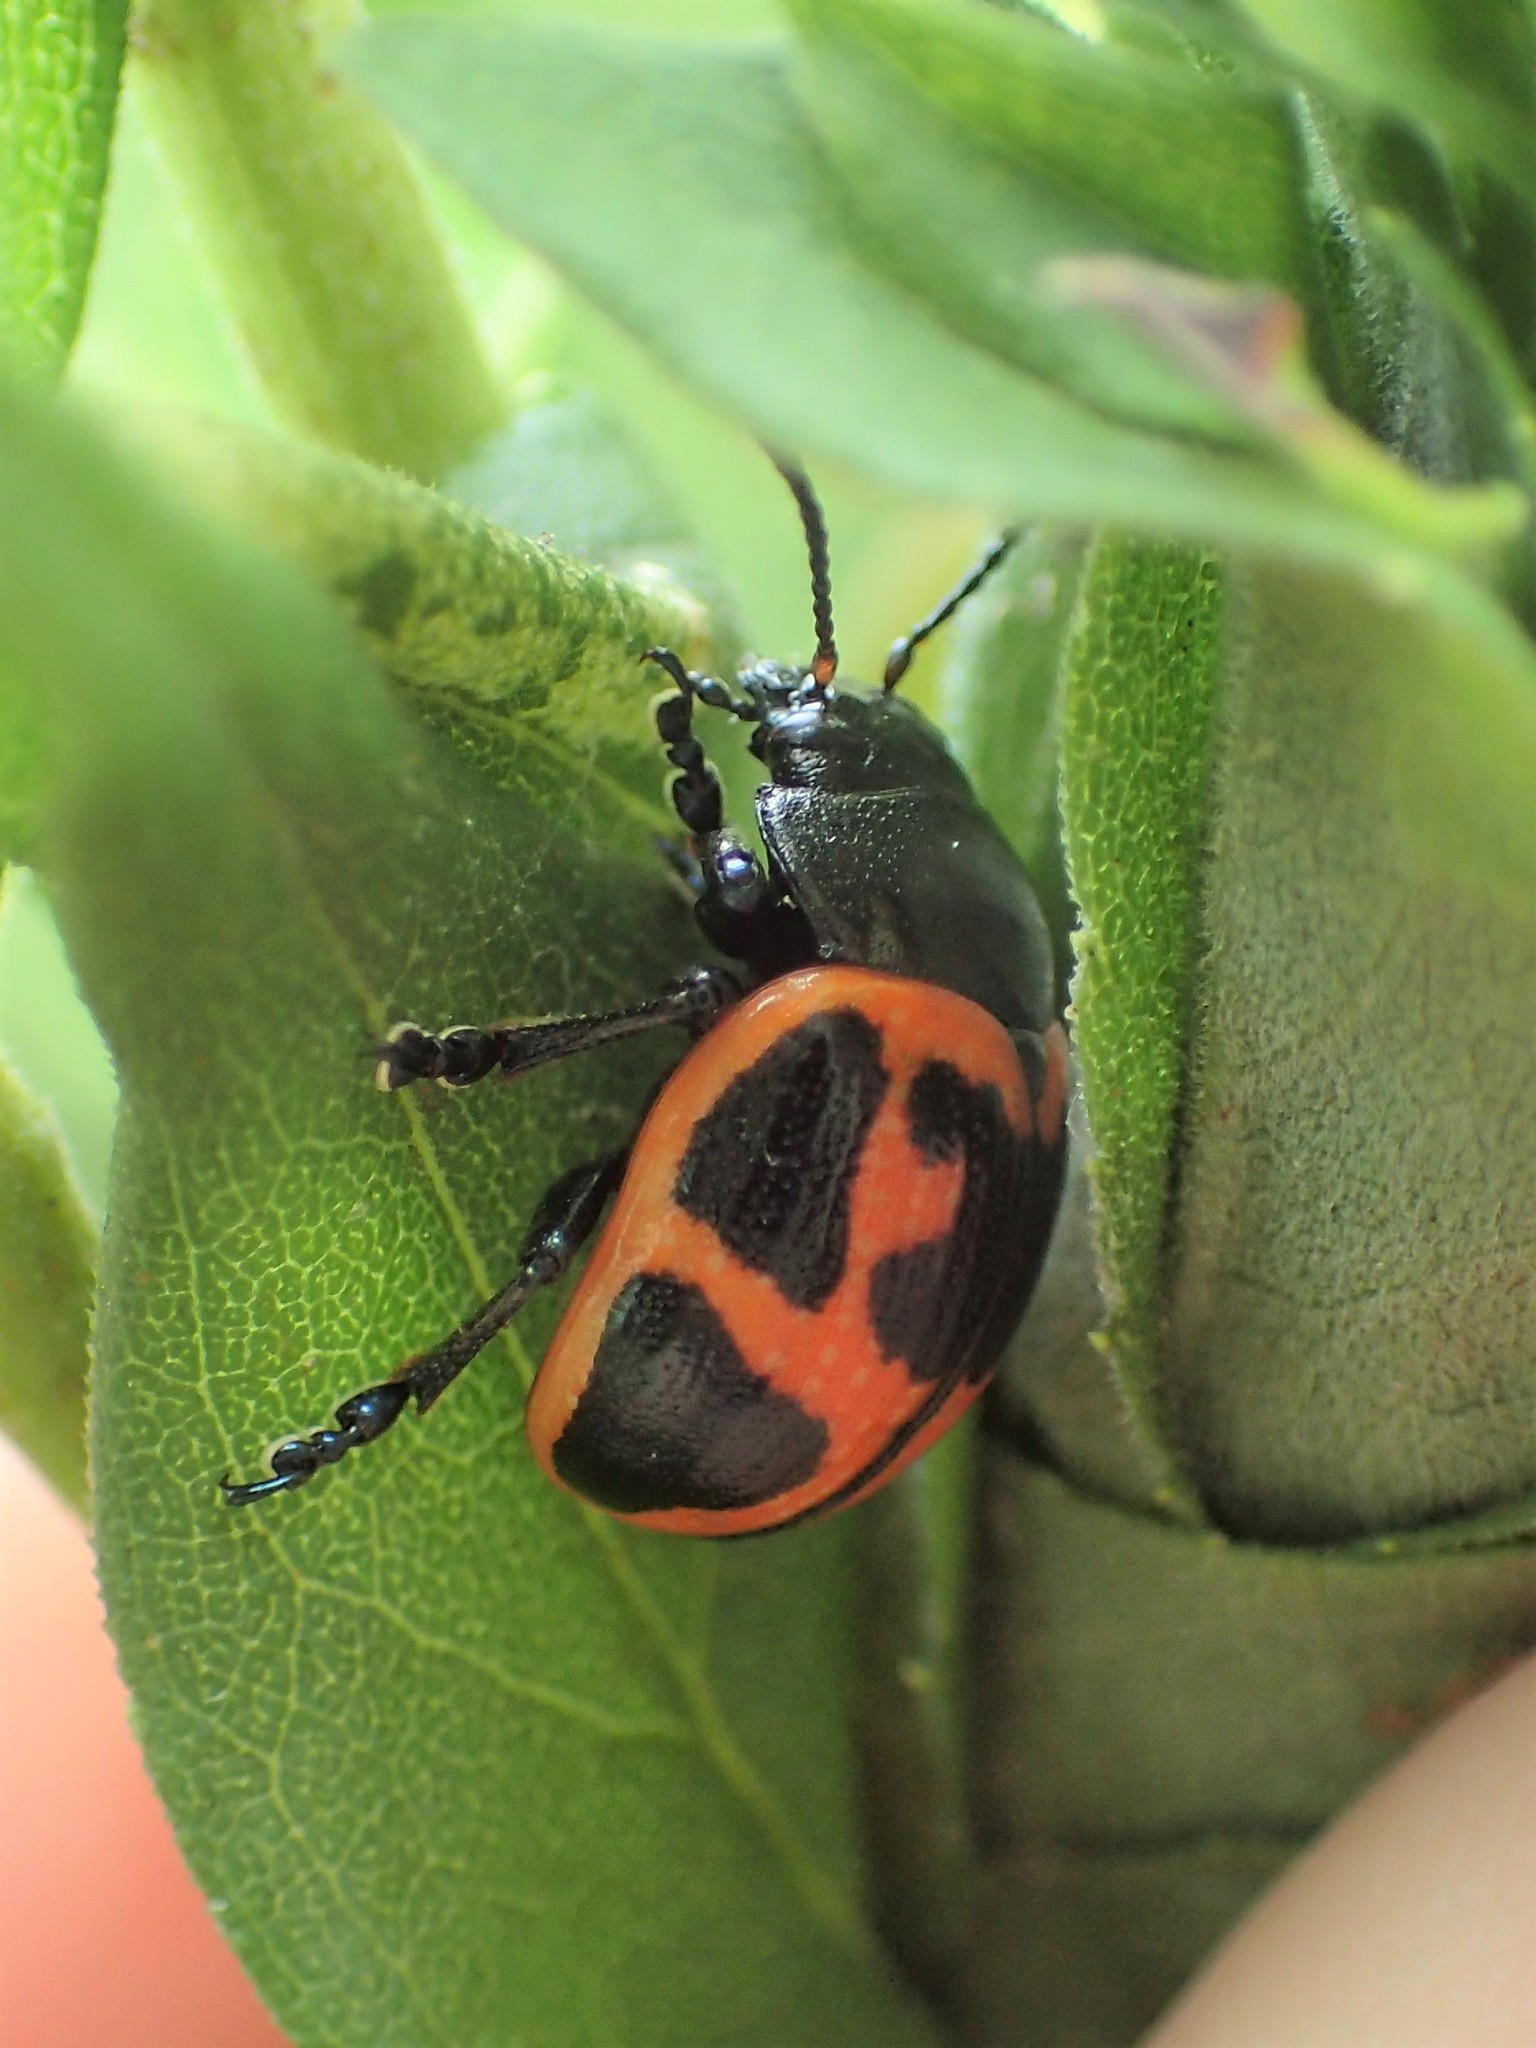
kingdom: Animalia
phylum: Arthropoda
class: Insecta
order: Coleoptera
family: Chrysomelidae
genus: Labidomera
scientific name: Labidomera clivicollis
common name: Swamp milkweed leaf beetle
